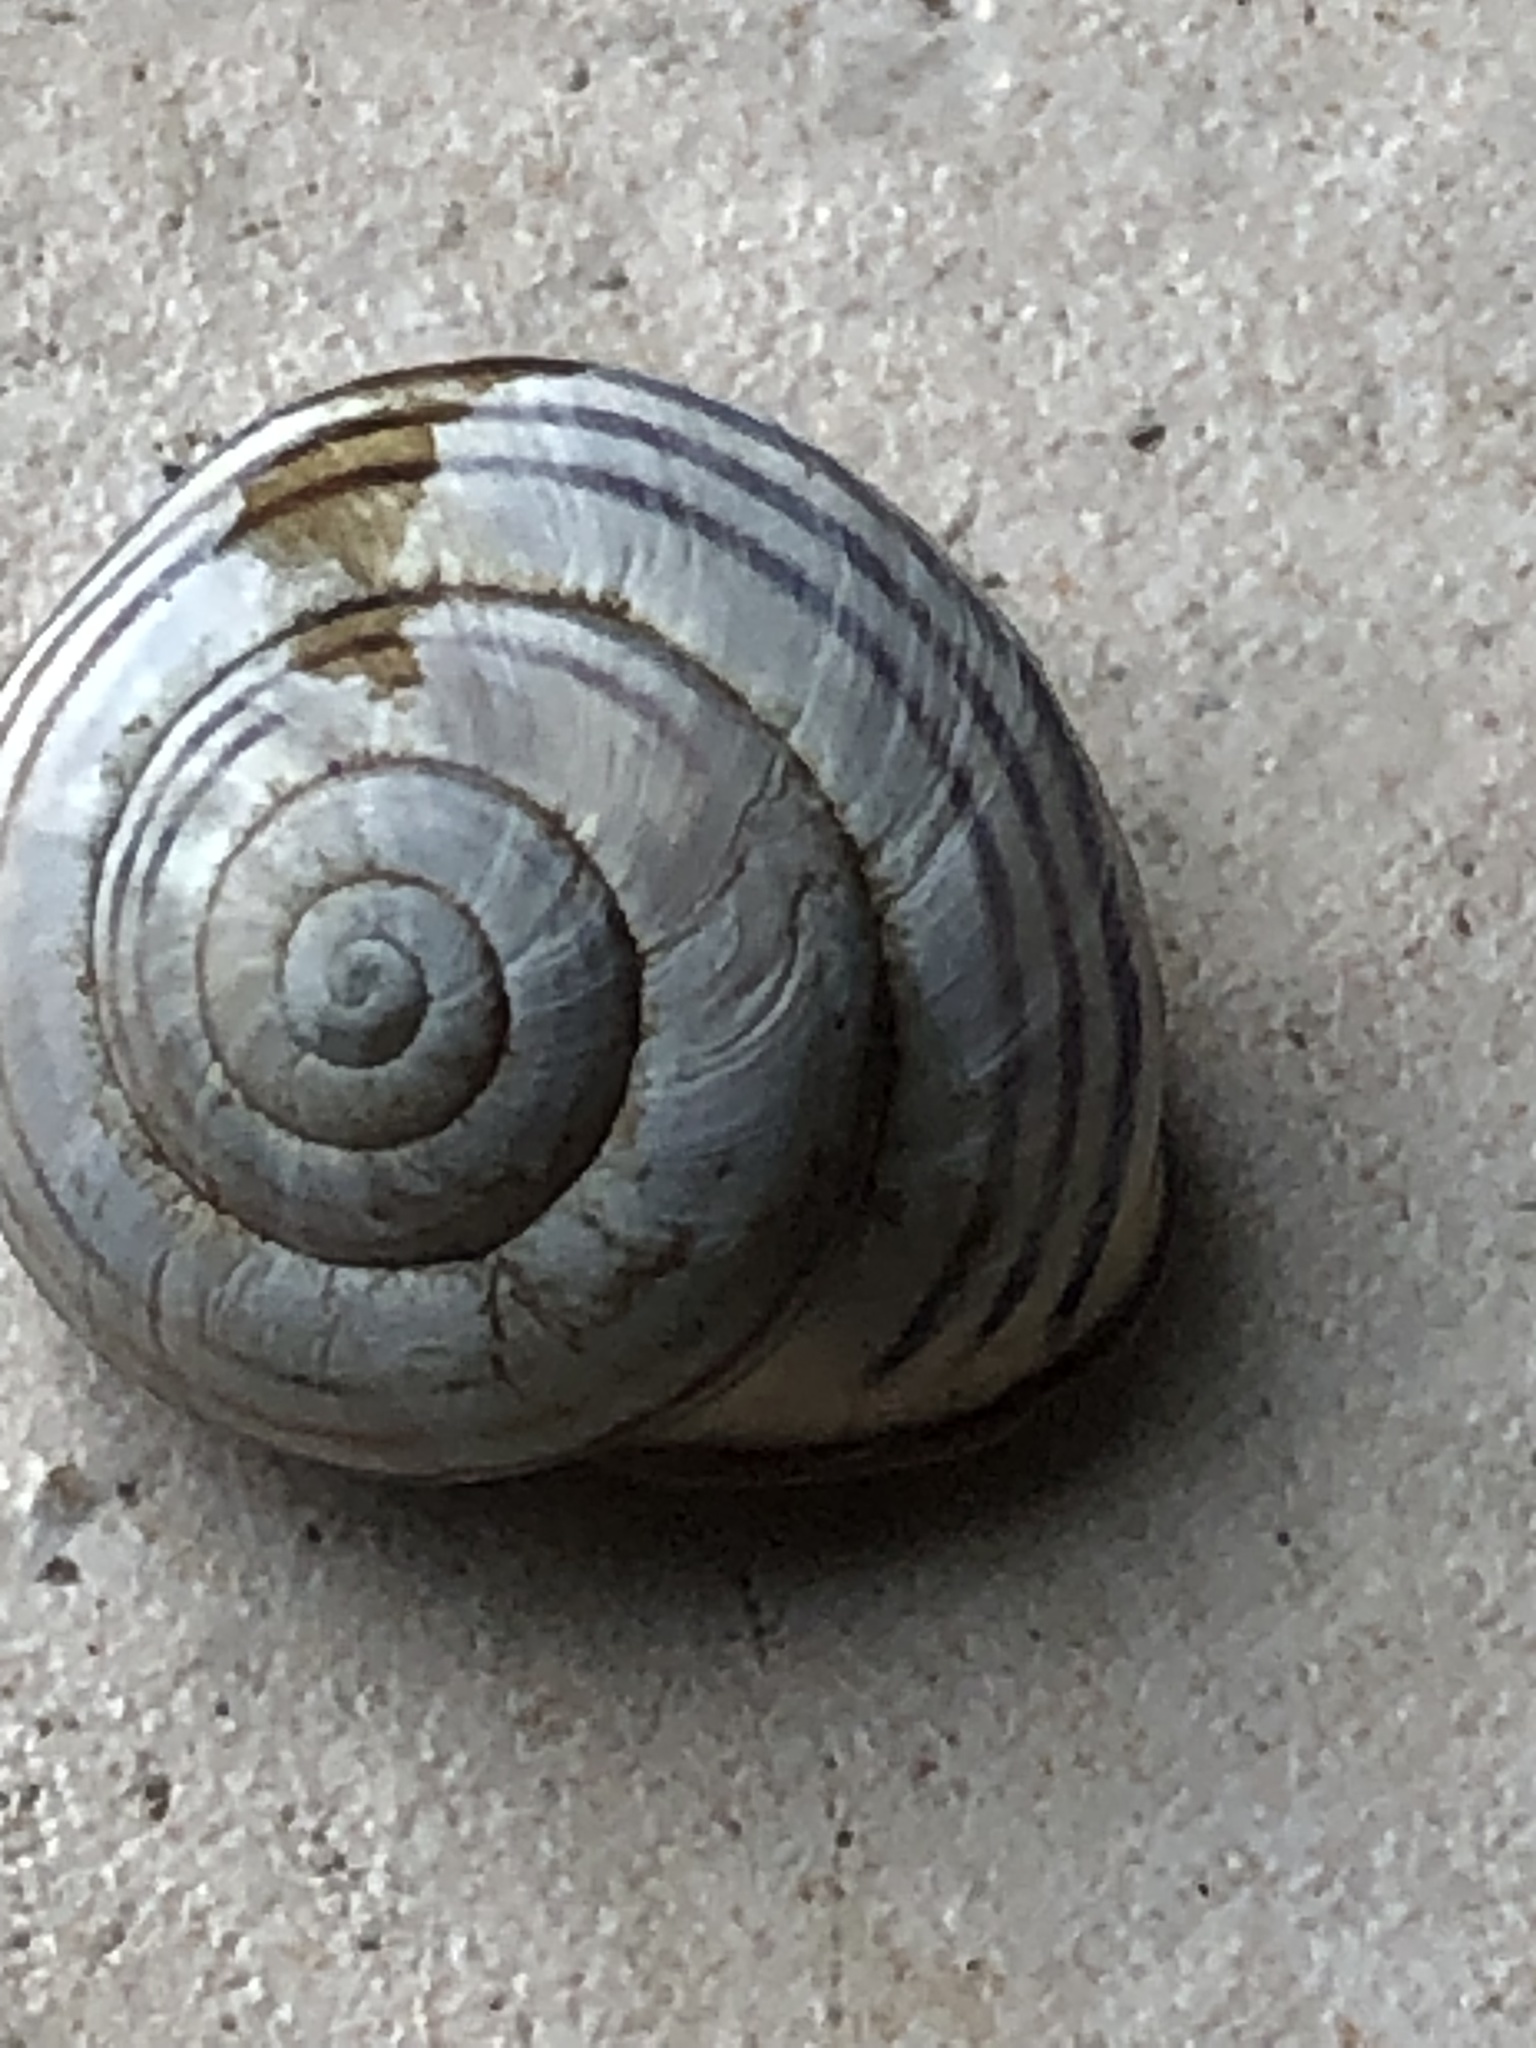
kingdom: Animalia
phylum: Mollusca
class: Gastropoda
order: Stylommatophora
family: Helicidae
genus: Cepaea
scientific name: Cepaea nemoralis
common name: Grovesnail
